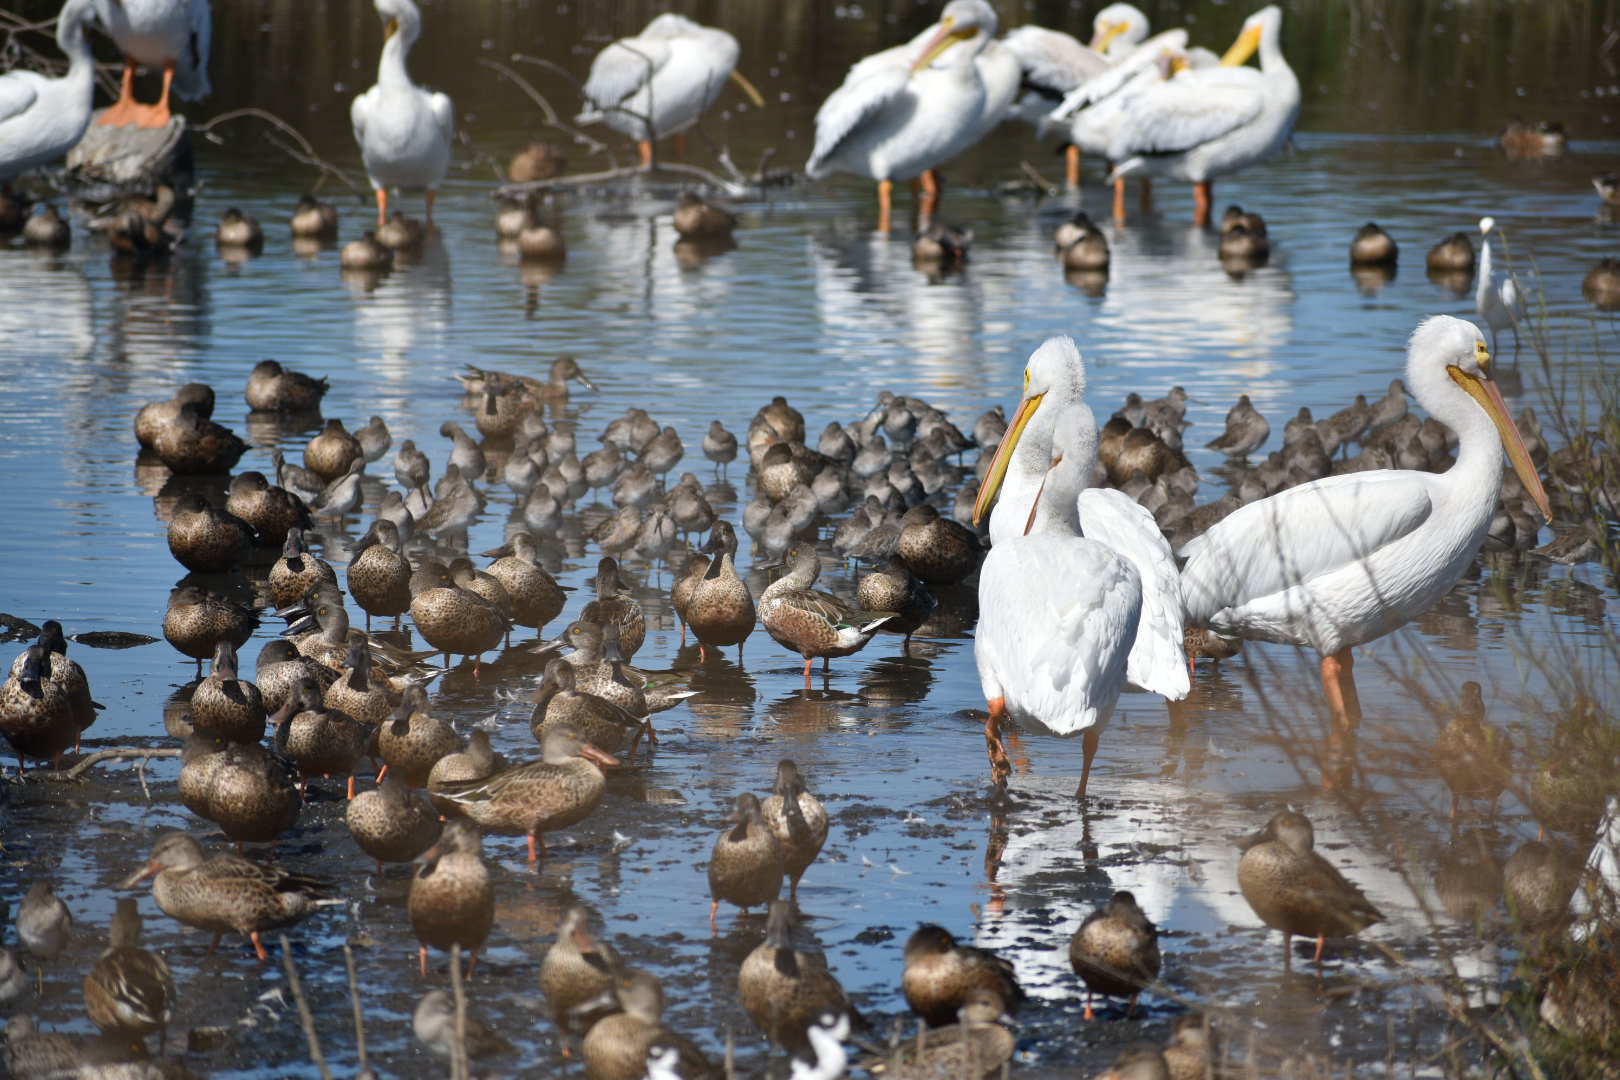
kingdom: Animalia
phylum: Chordata
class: Aves
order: Anseriformes
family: Anatidae
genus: Spatula
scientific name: Spatula clypeata
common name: Northern shoveler
